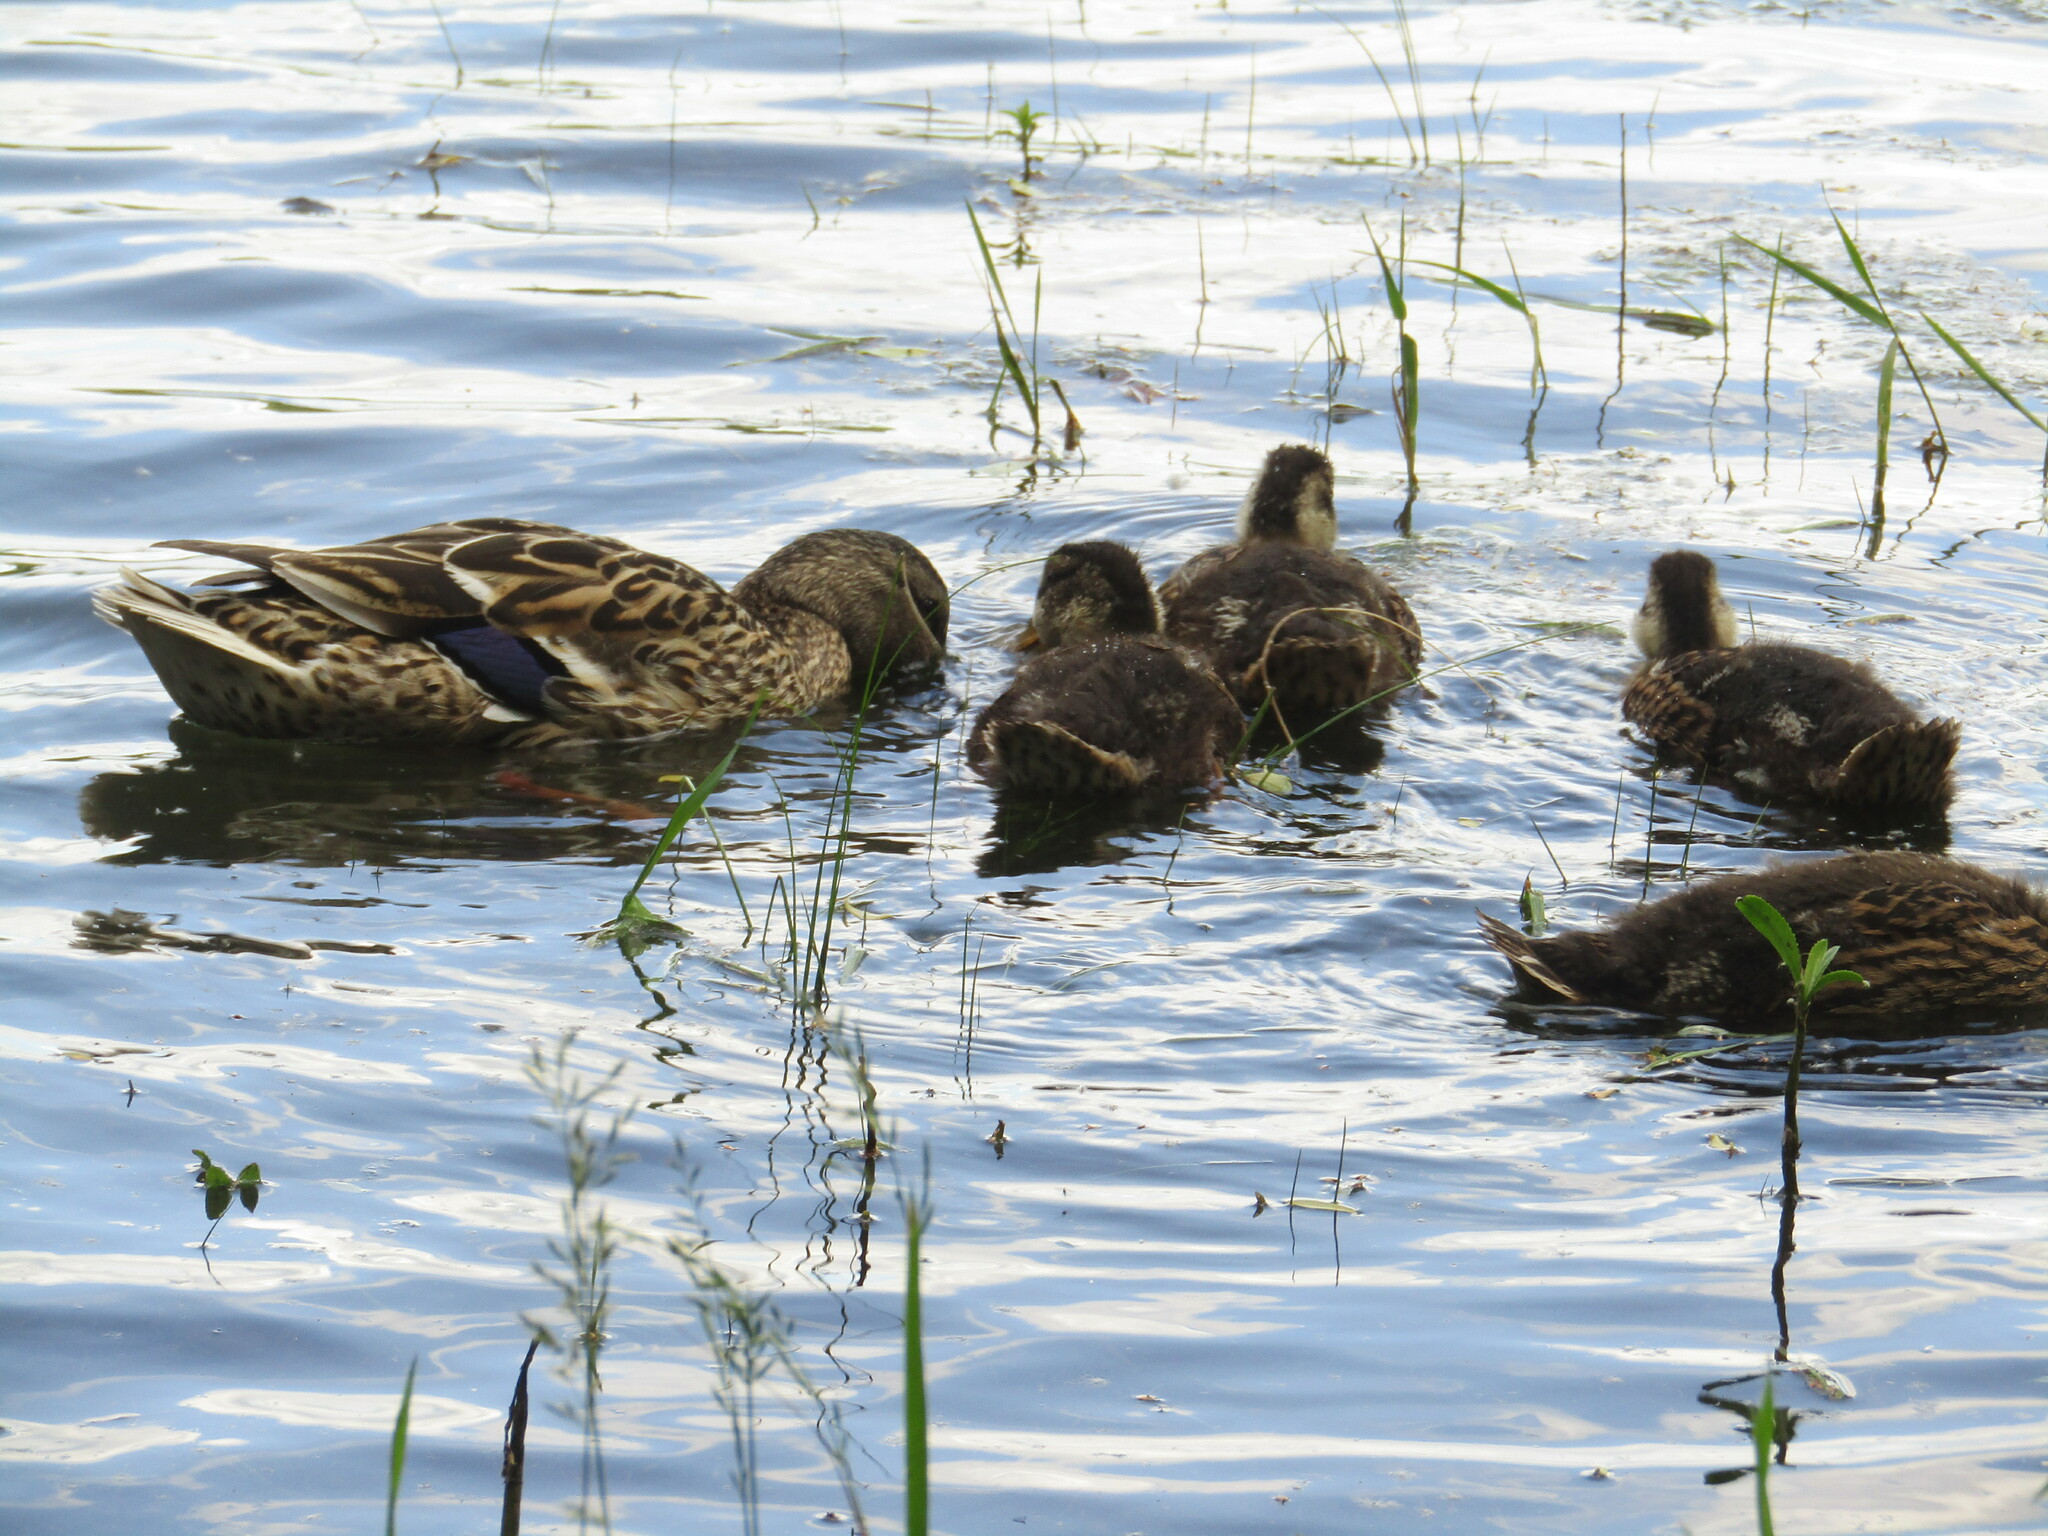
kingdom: Animalia
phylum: Chordata
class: Aves
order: Anseriformes
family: Anatidae
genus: Anas
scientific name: Anas platyrhynchos
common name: Mallard
